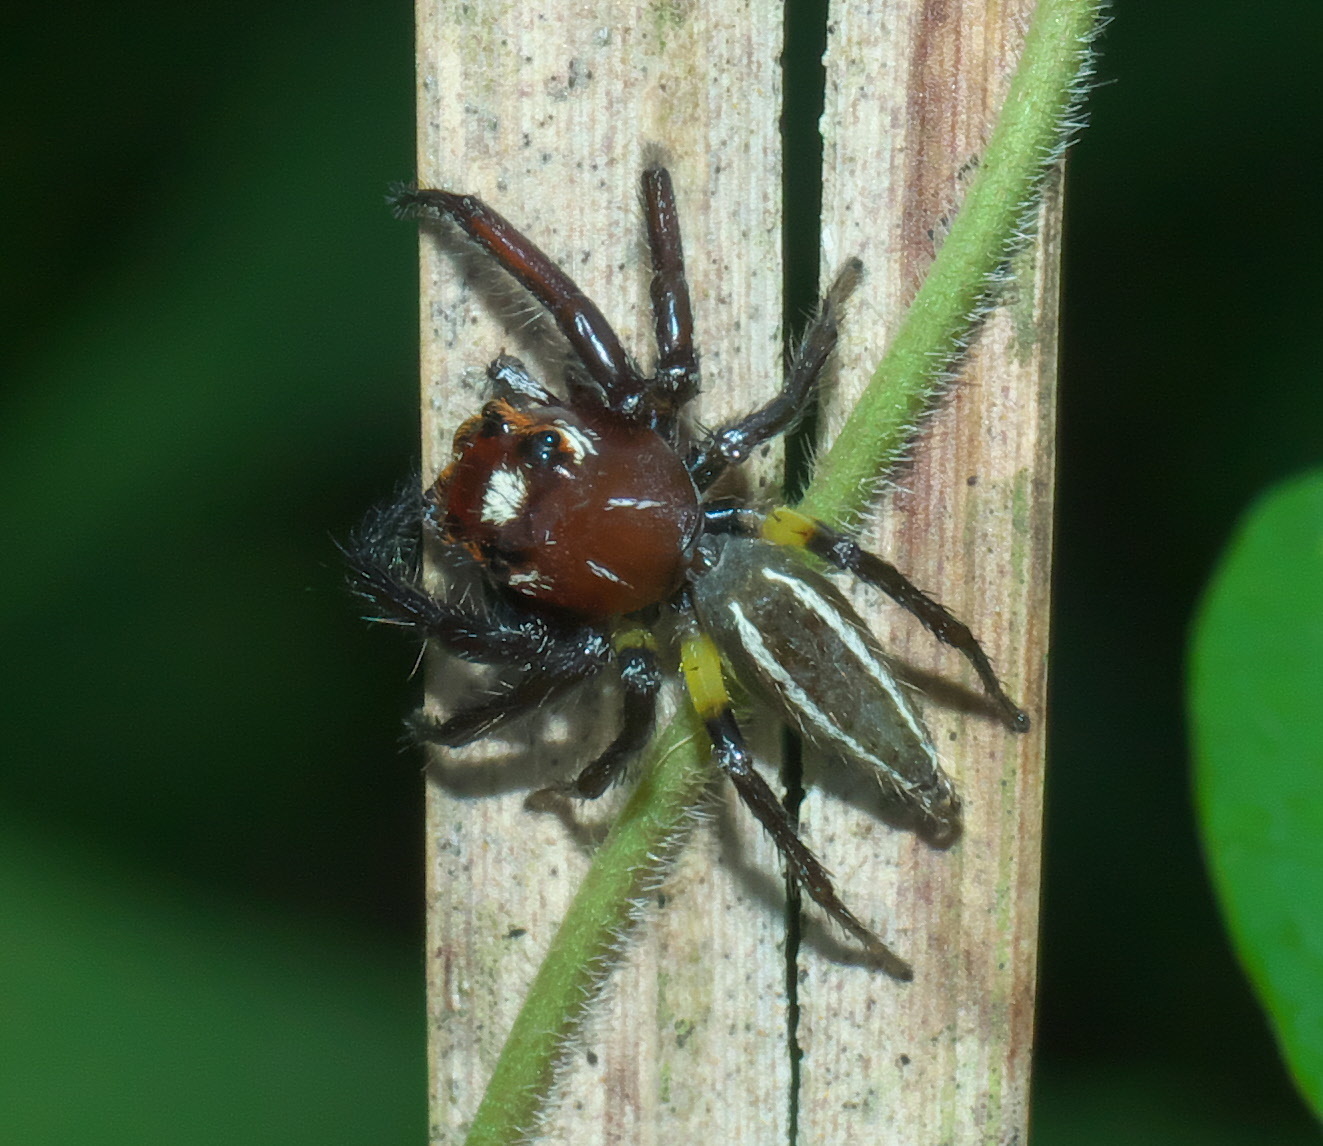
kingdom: Animalia
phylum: Arthropoda
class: Arachnida
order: Araneae
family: Salticidae
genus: Colonus
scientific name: Colonus sylvanus
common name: Jumping spiders
